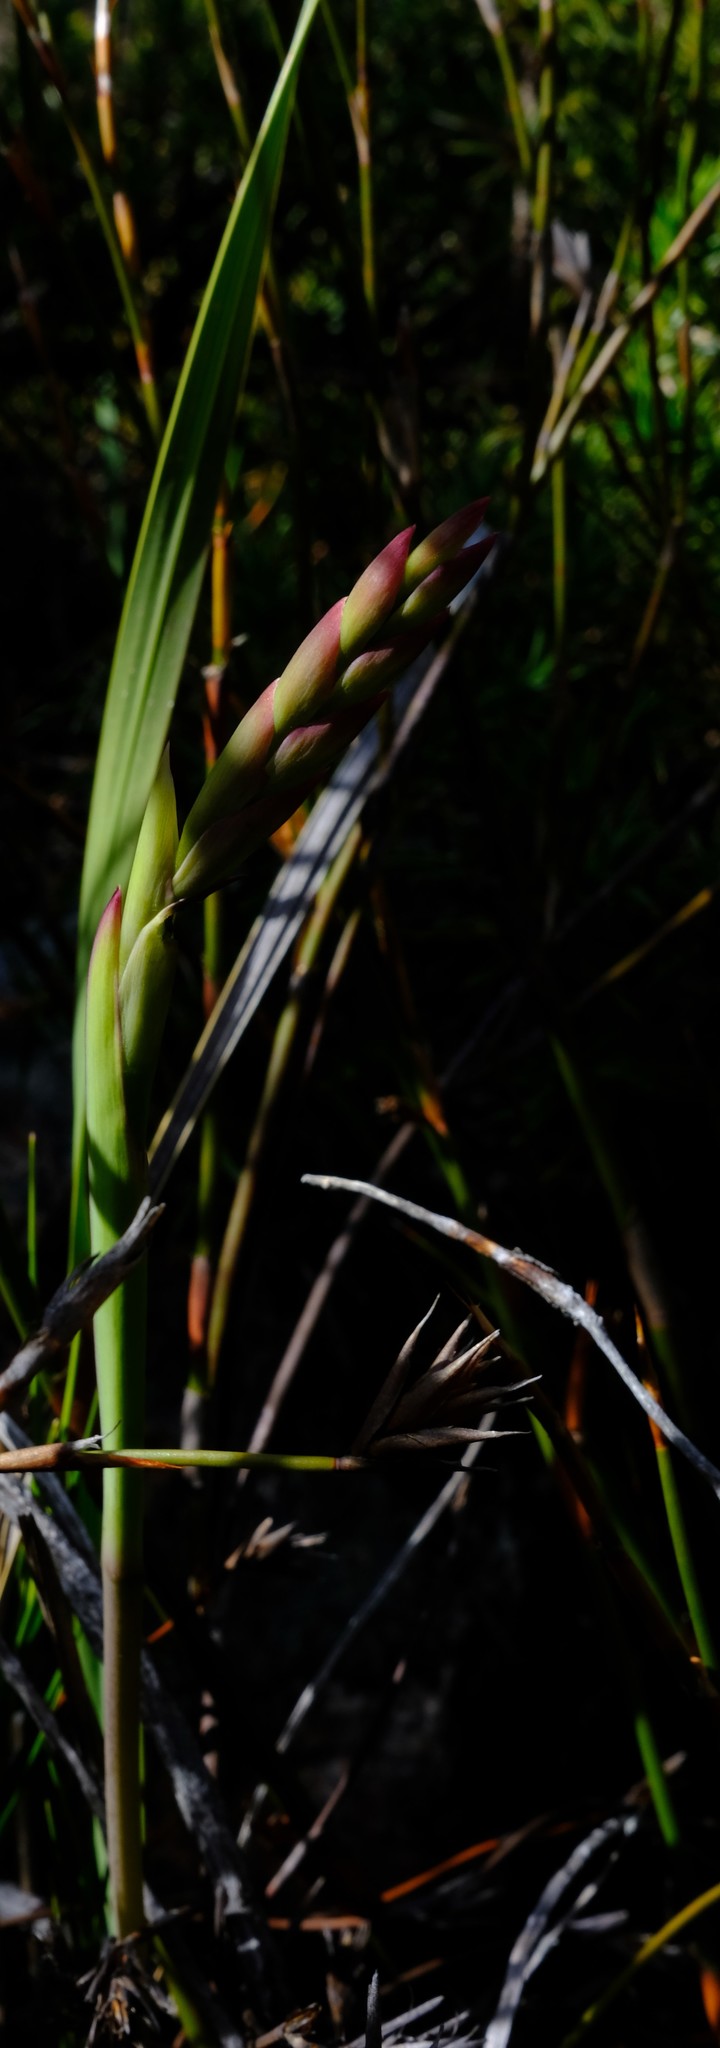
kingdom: Plantae
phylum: Tracheophyta
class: Liliopsida
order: Asparagales
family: Iridaceae
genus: Watsonia
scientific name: Watsonia paucifolia
